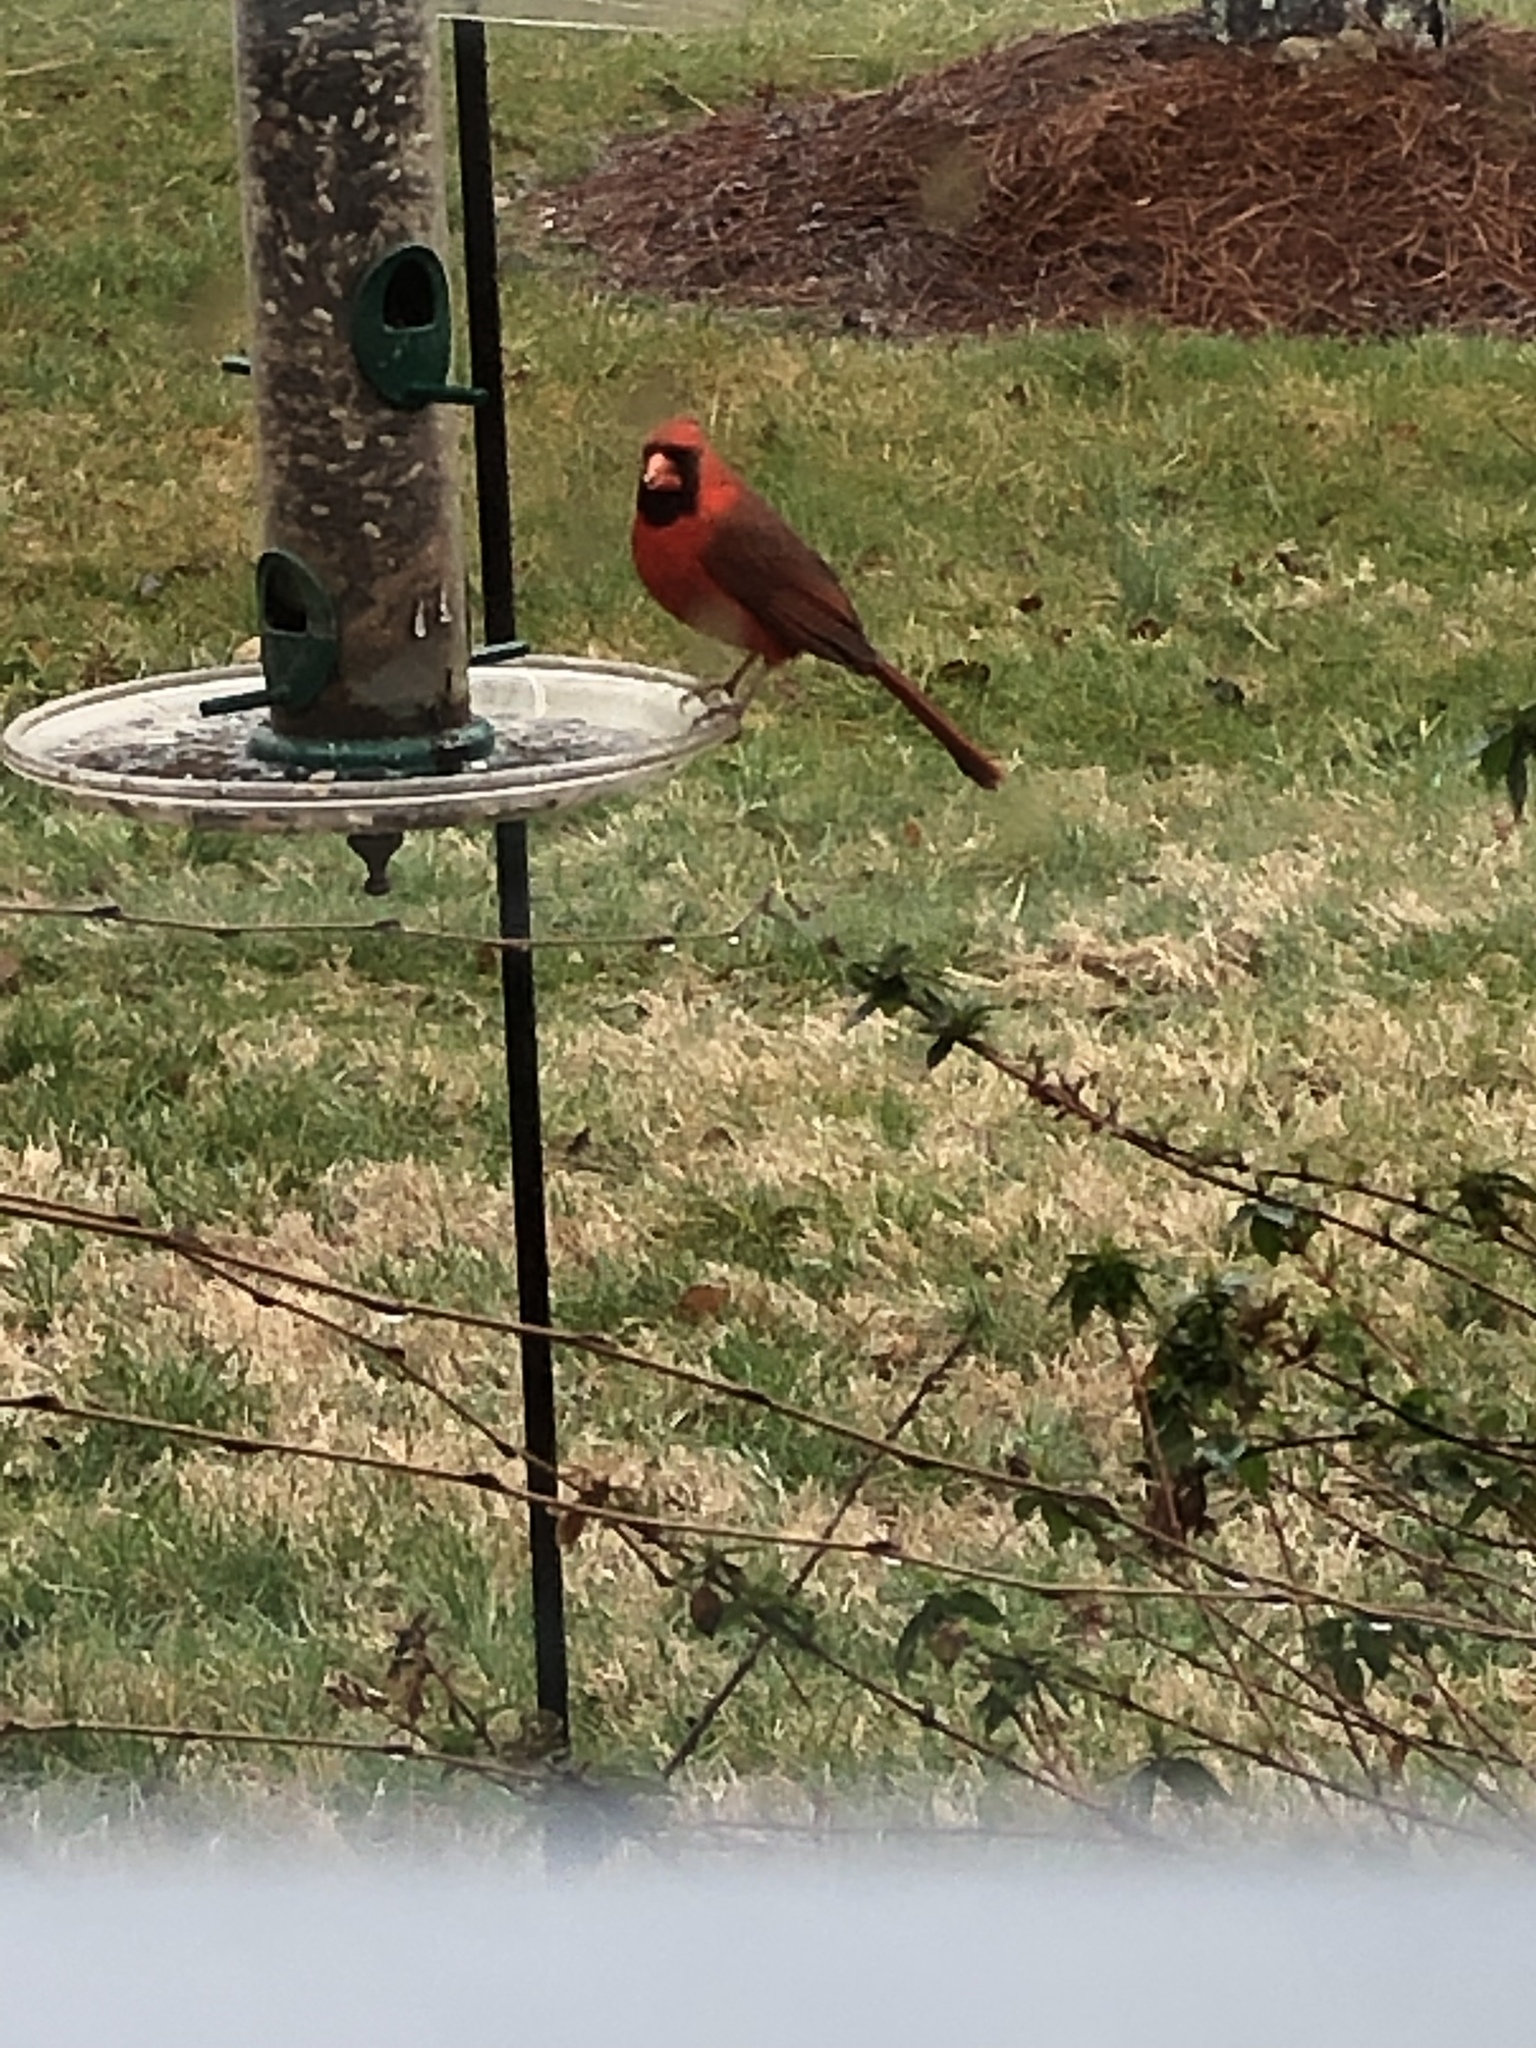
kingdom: Animalia
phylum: Chordata
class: Aves
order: Passeriformes
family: Cardinalidae
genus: Cardinalis
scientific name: Cardinalis cardinalis
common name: Northern cardinal
